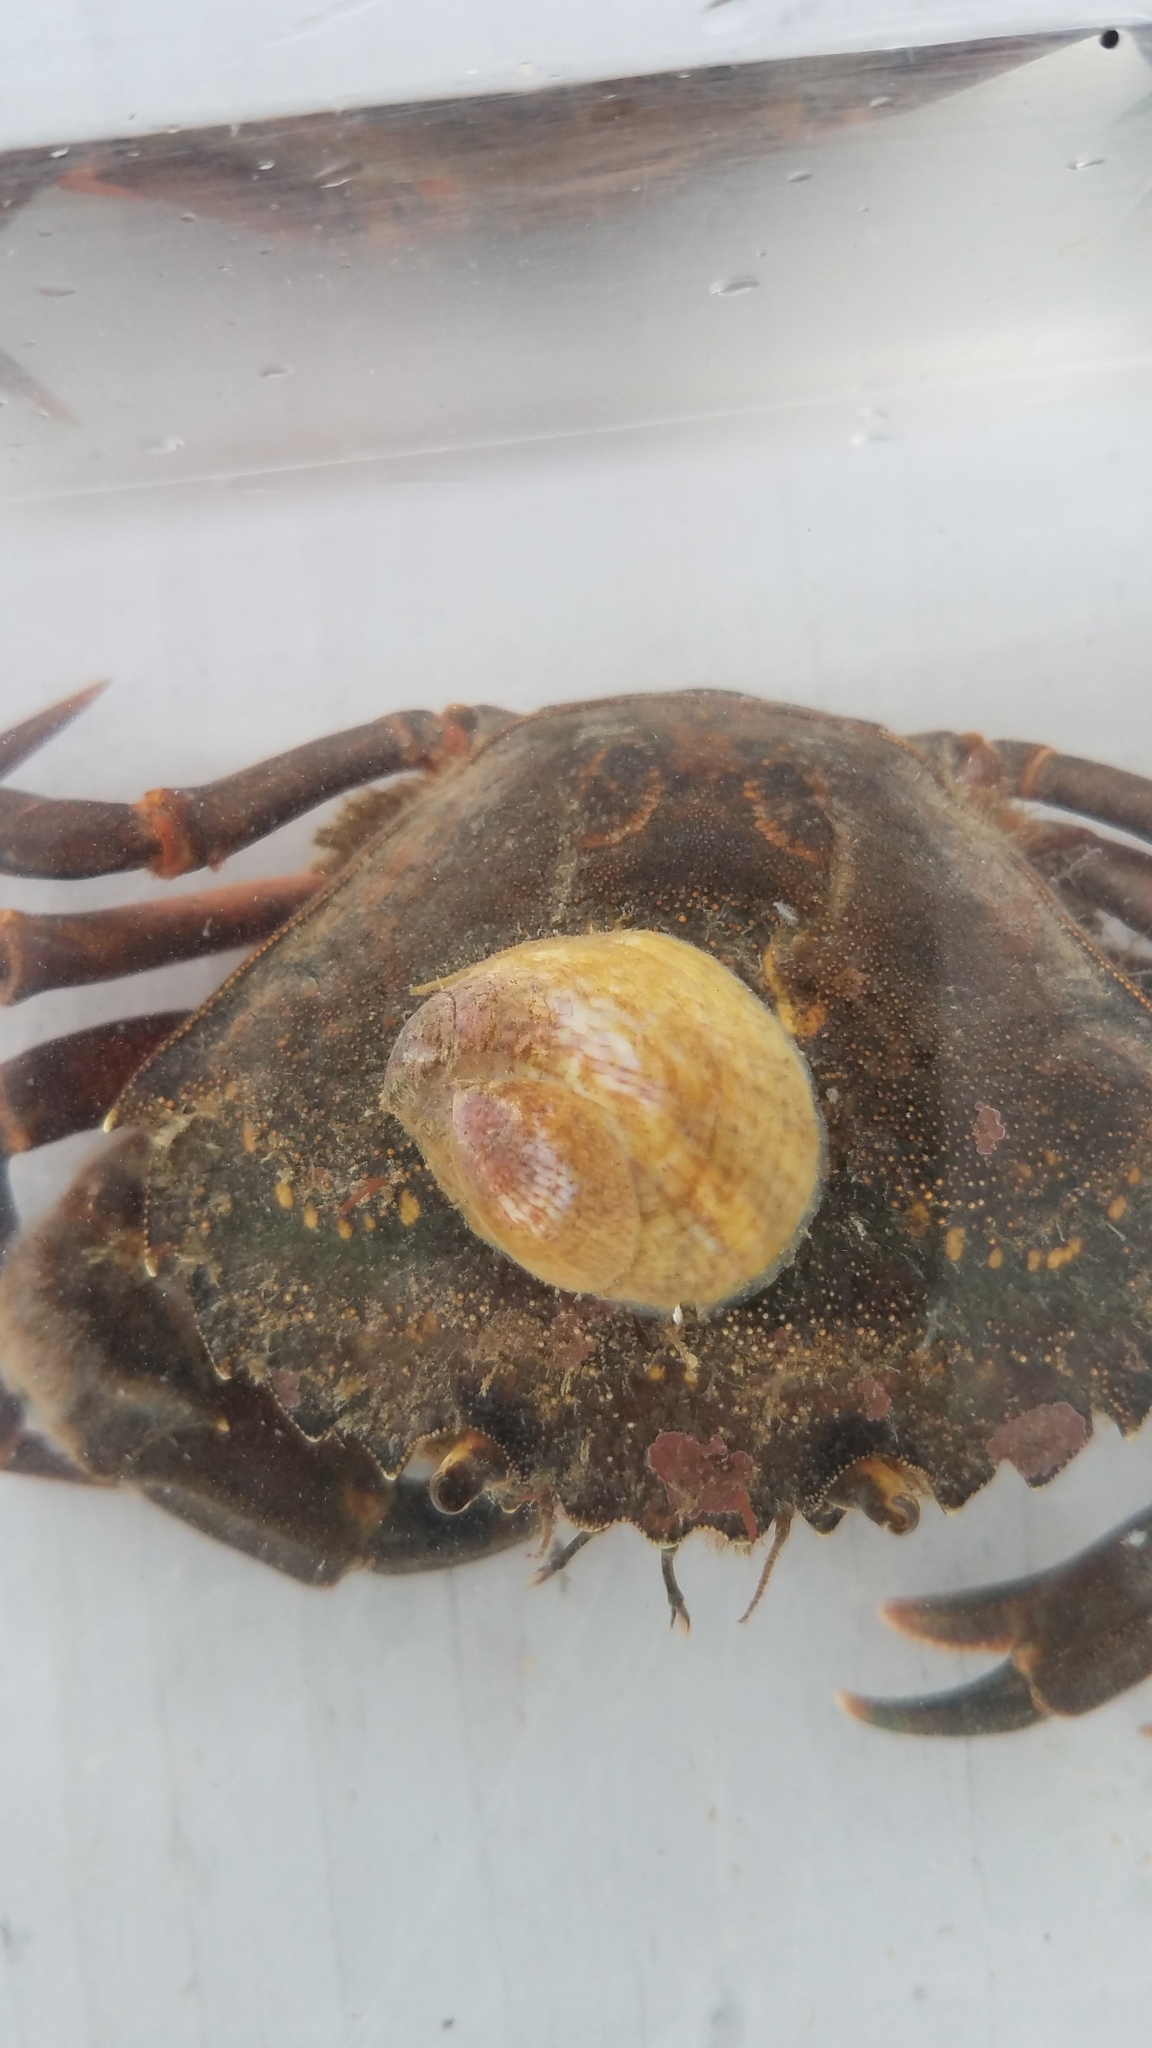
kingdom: Animalia
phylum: Mollusca
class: Gastropoda
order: Littorinimorpha
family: Calyptraeidae
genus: Crepidula
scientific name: Crepidula fornicata
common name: Slipper limpet
